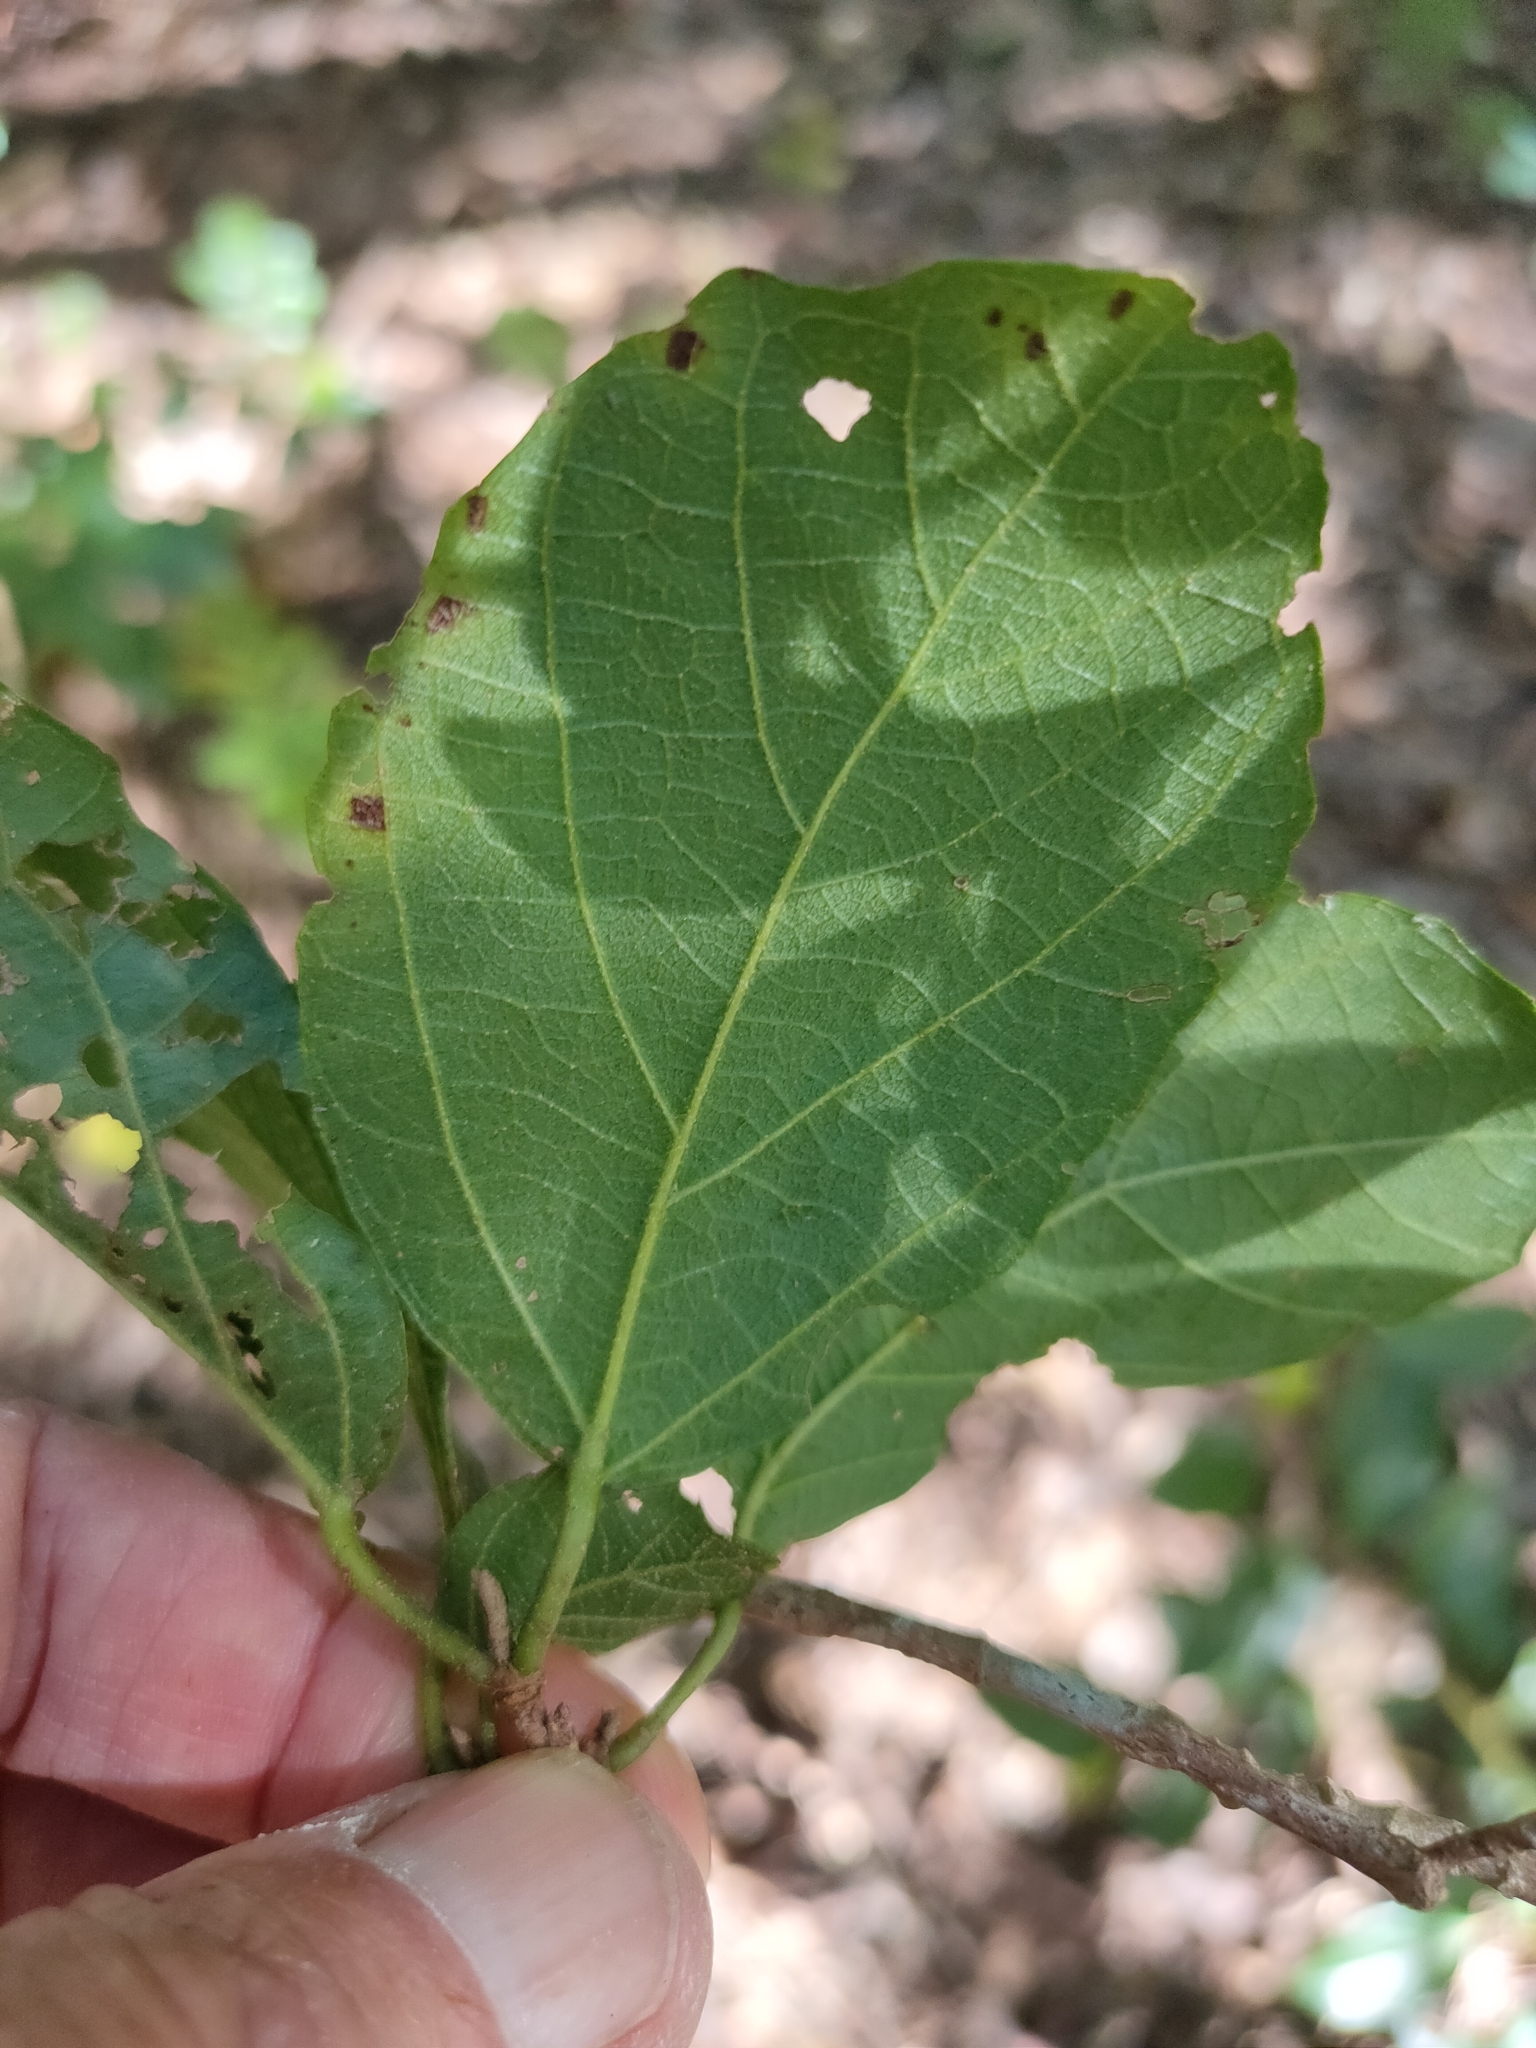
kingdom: Plantae
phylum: Tracheophyta
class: Magnoliopsida
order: Malpighiales
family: Euphorbiaceae
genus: Mallotus
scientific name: Mallotus claoxyloides
